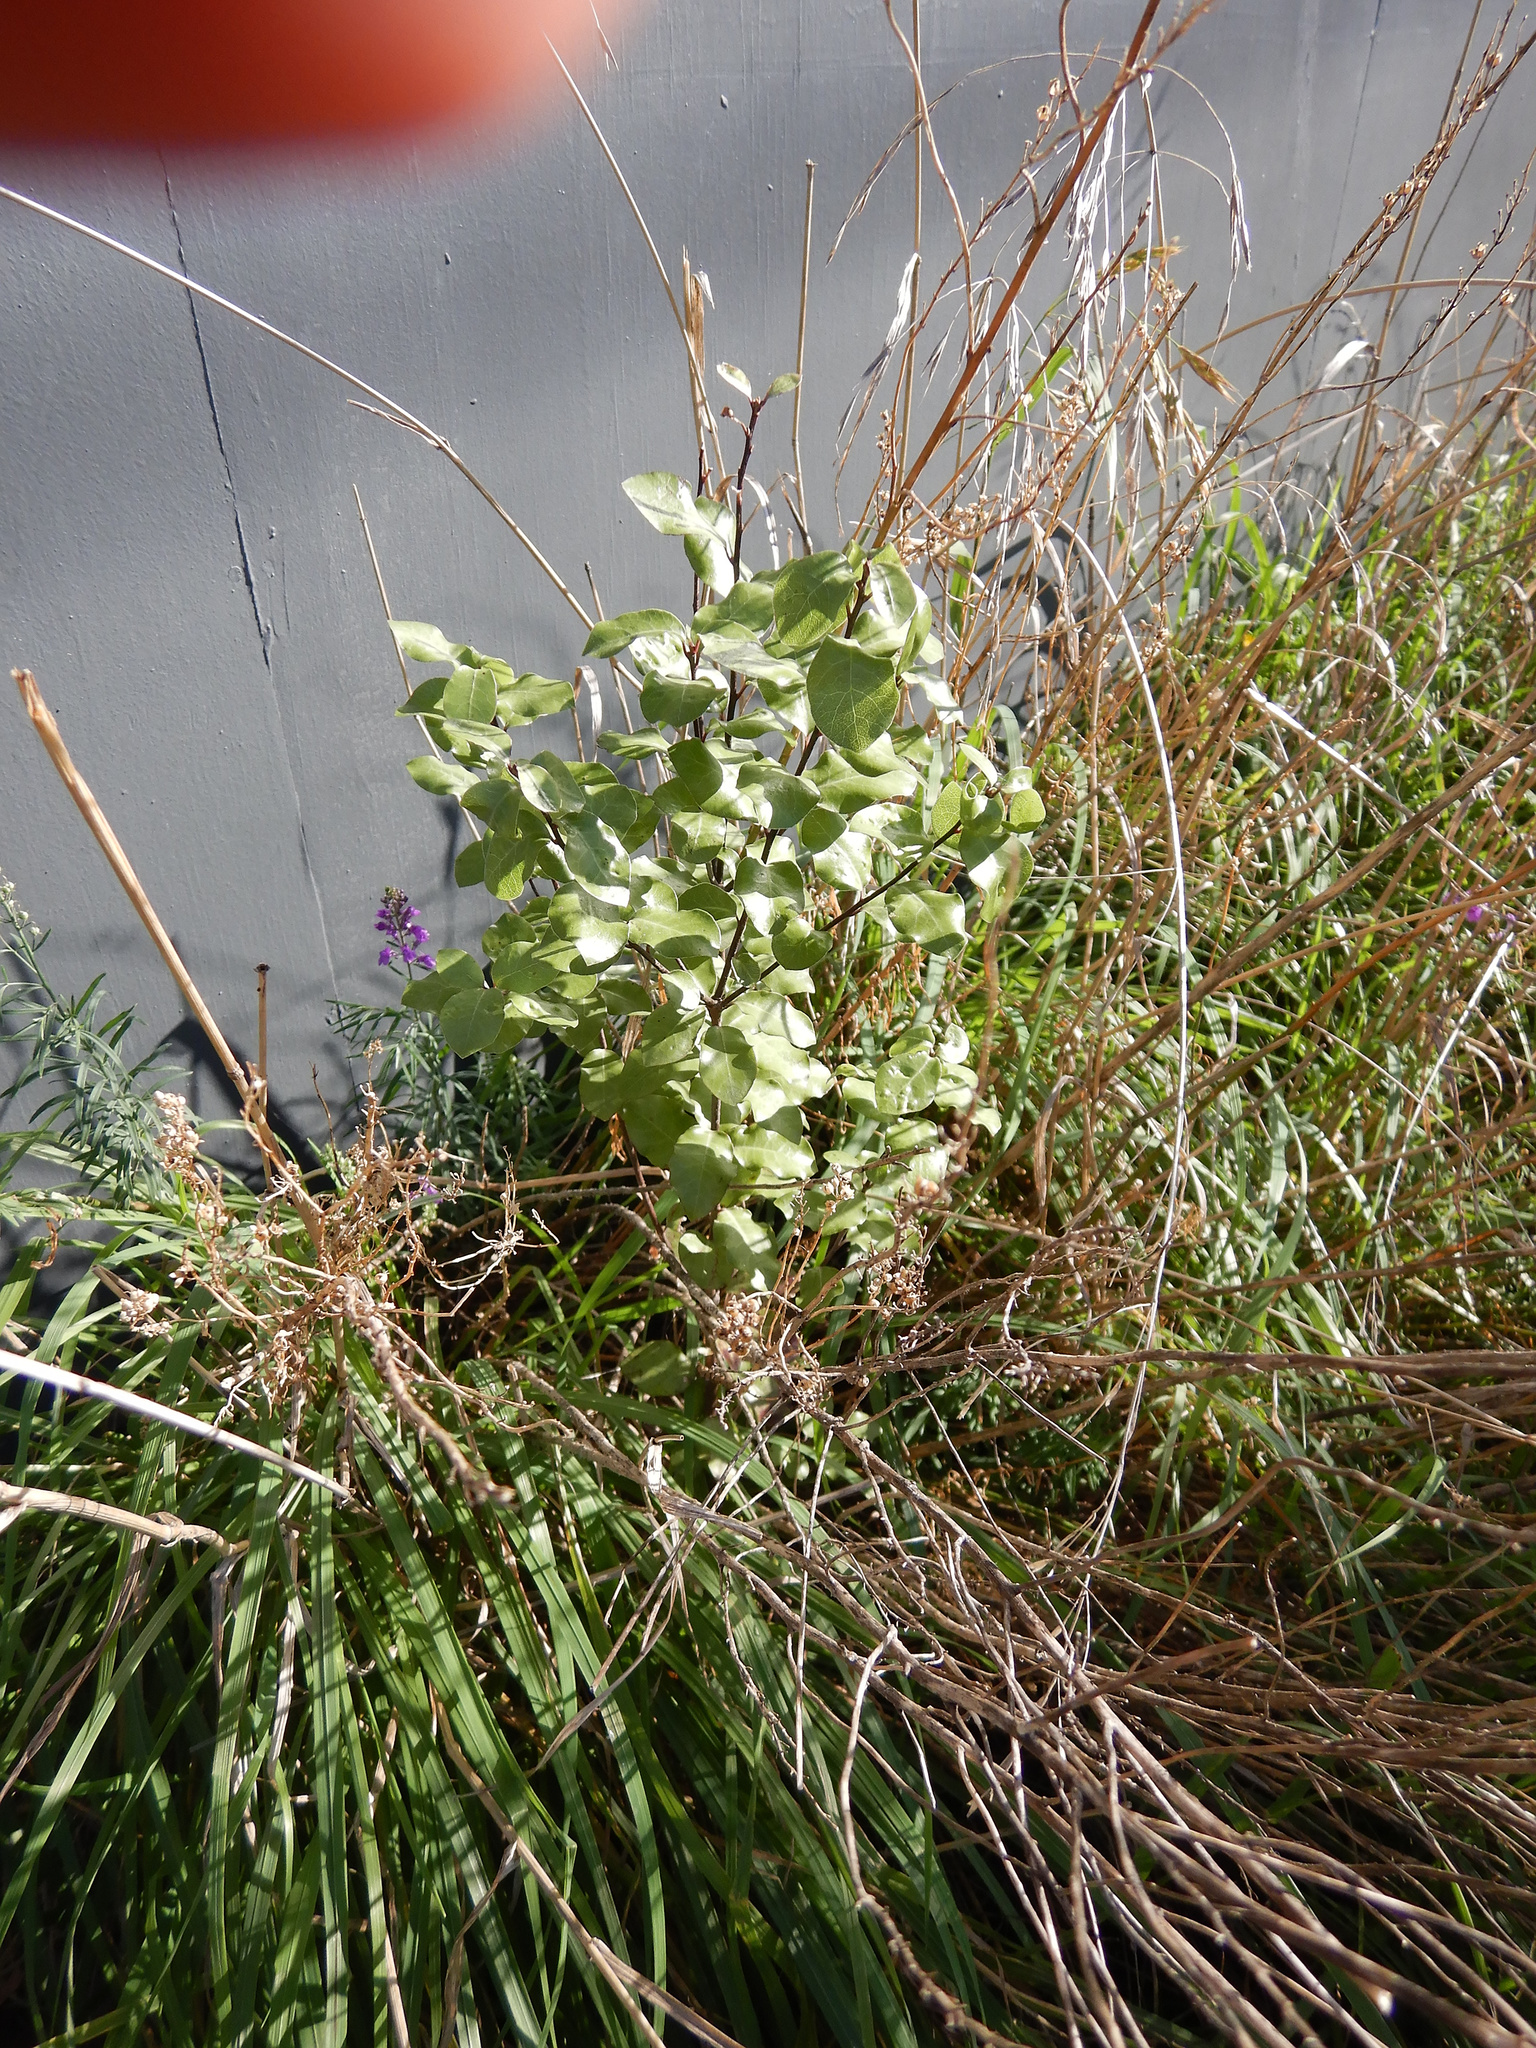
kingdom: Plantae
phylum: Tracheophyta
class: Magnoliopsida
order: Apiales
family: Pittosporaceae
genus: Pittosporum
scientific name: Pittosporum tenuifolium
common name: Kohuhu
